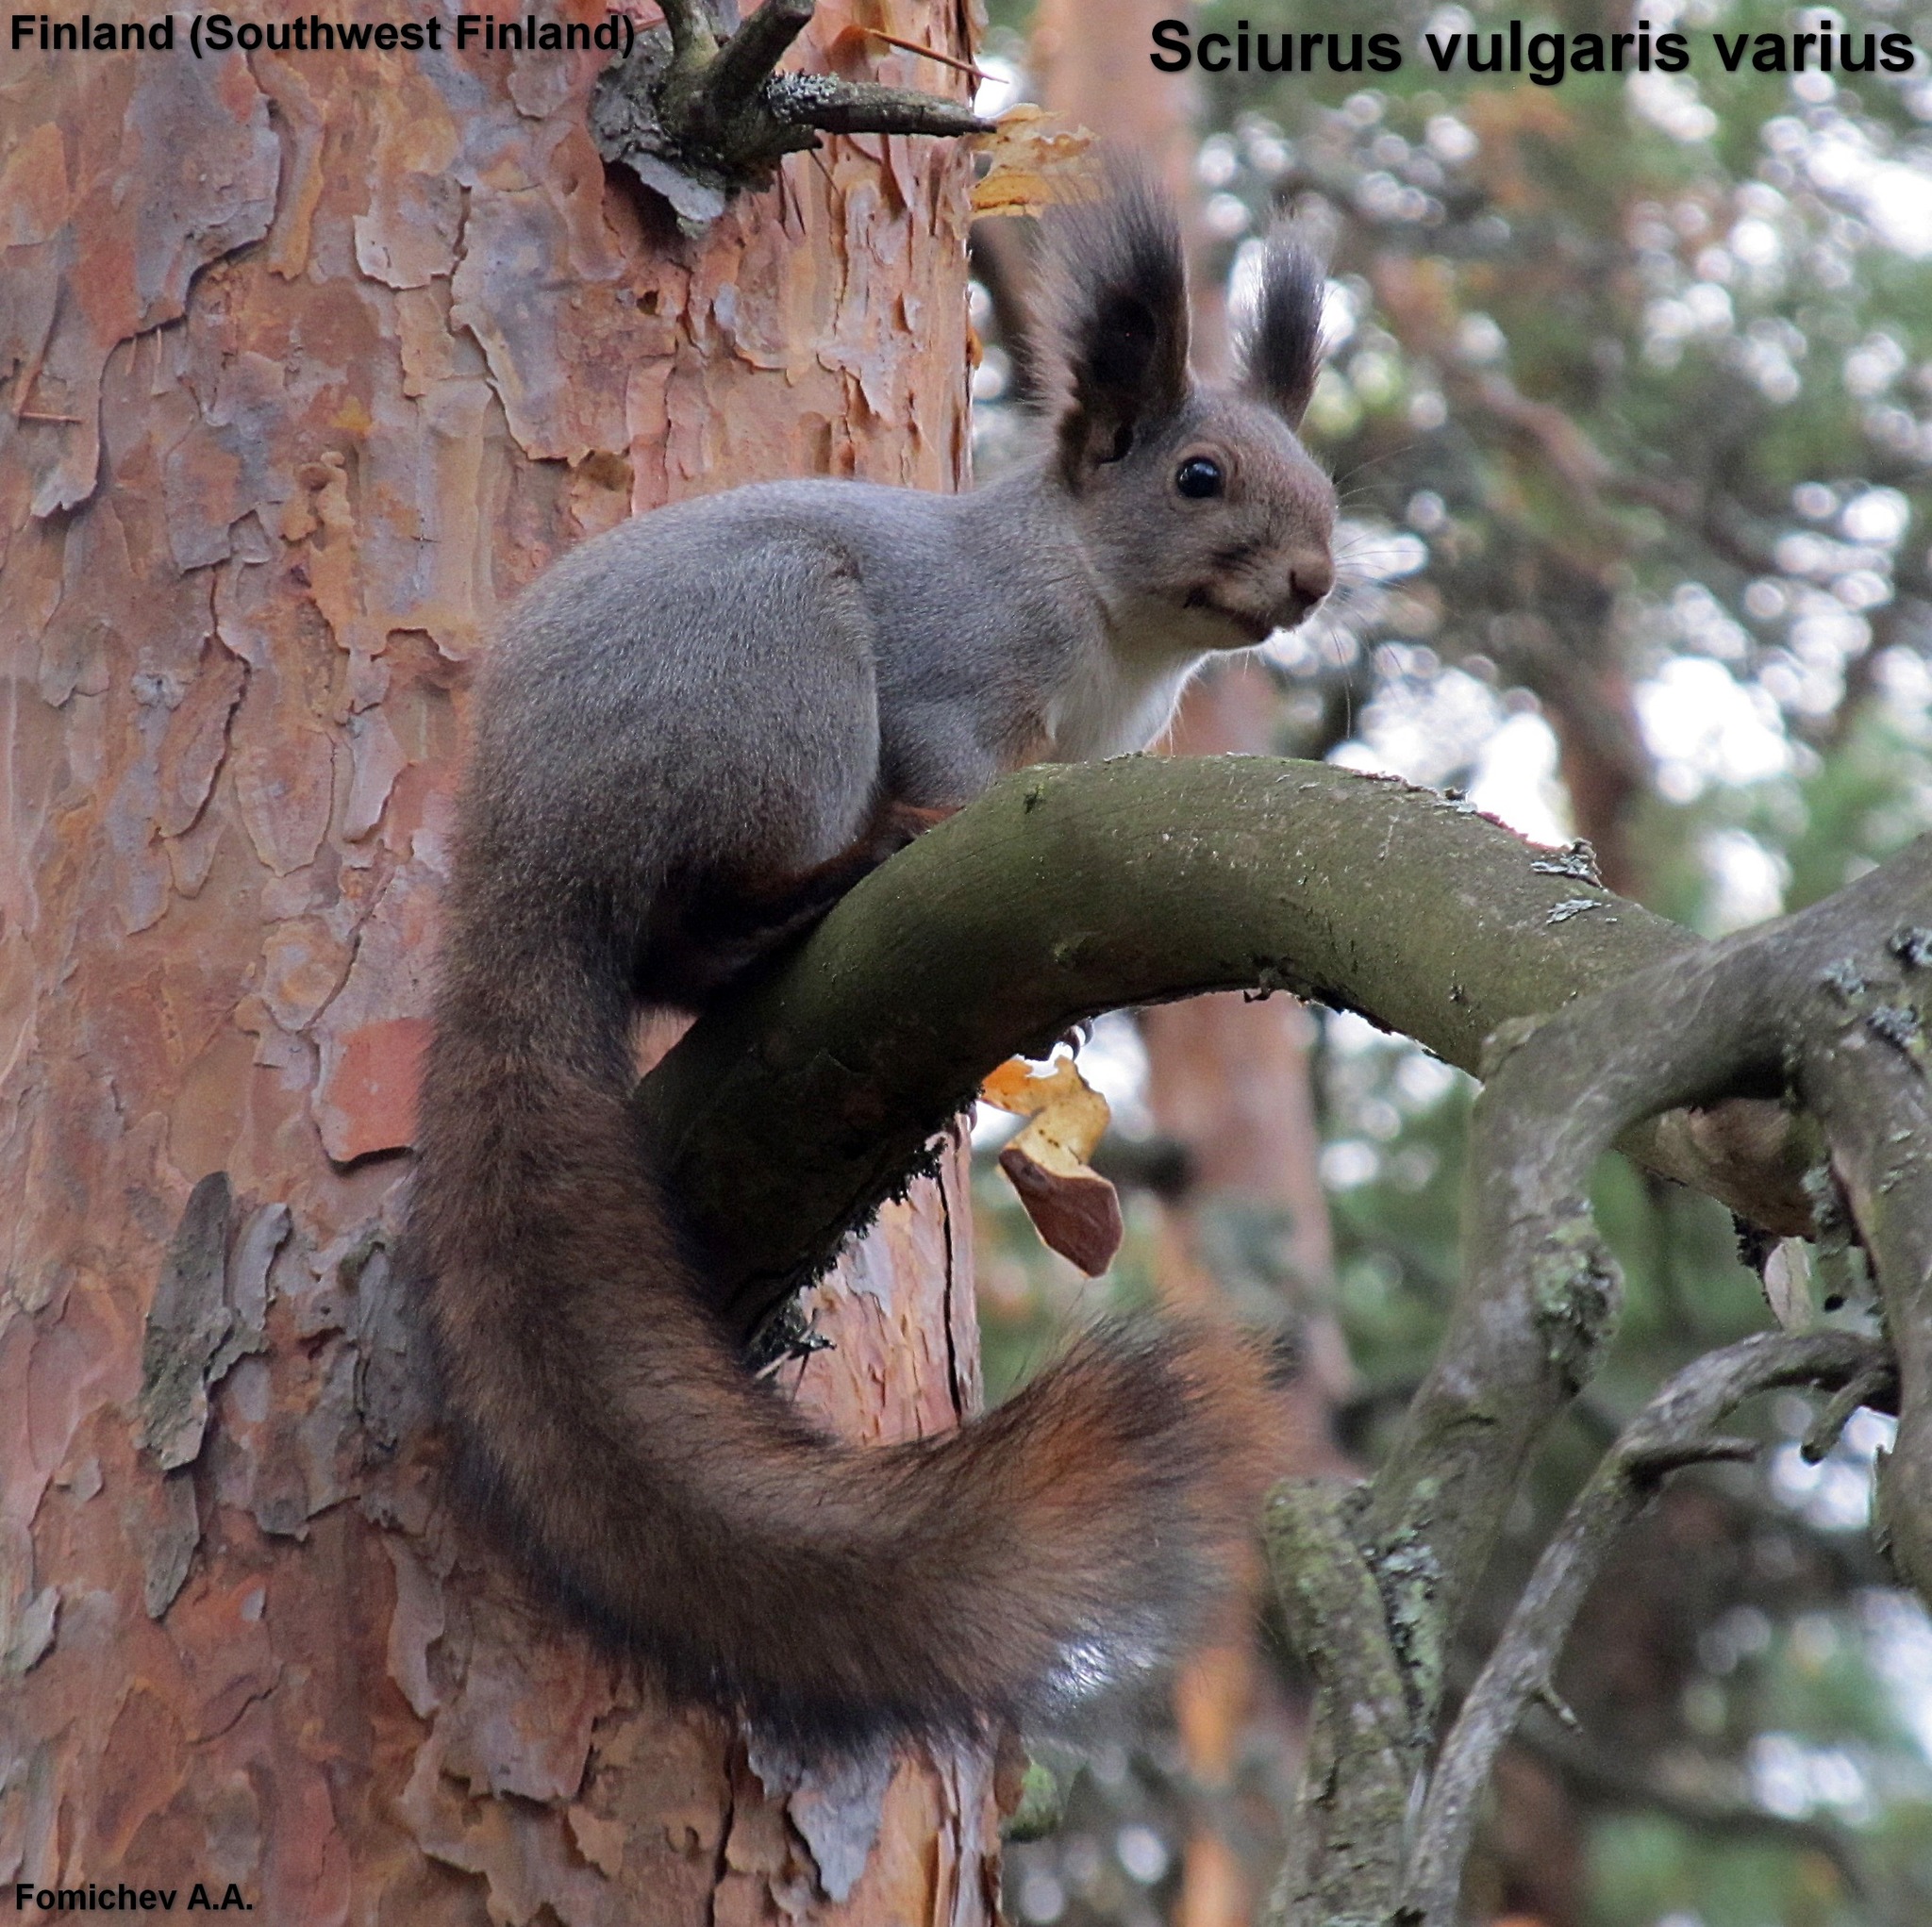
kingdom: Animalia
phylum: Chordata
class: Mammalia
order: Rodentia
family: Sciuridae
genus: Sciurus
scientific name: Sciurus vulgaris
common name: Eurasian red squirrel
